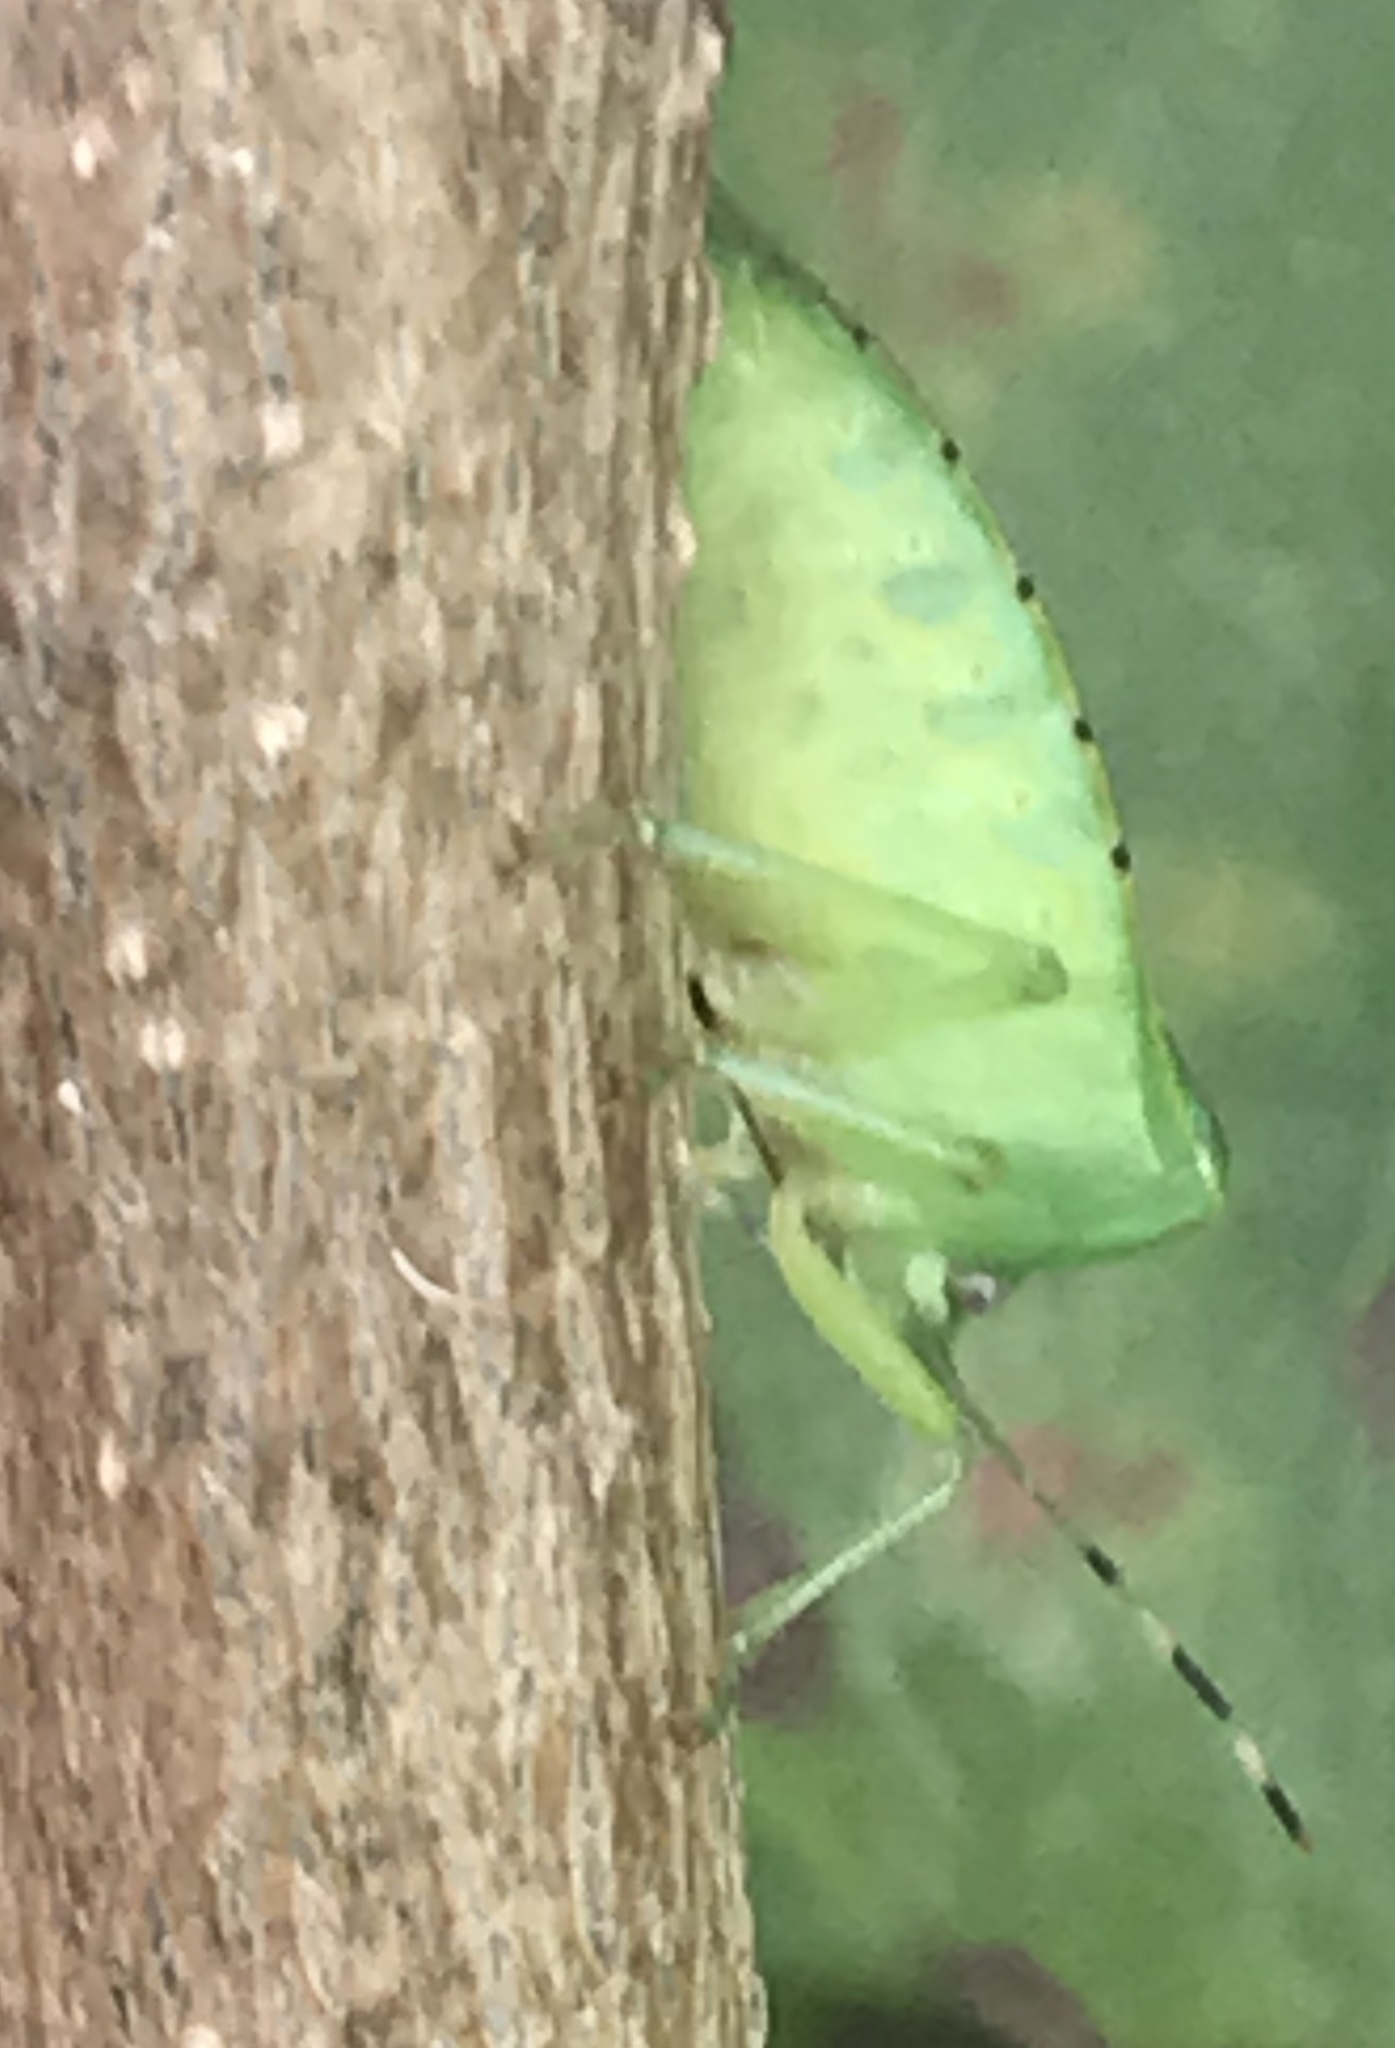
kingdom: Animalia
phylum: Arthropoda
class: Insecta
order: Hemiptera
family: Pentatomidae
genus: Chinavia
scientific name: Chinavia hilaris
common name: Green stink bug
